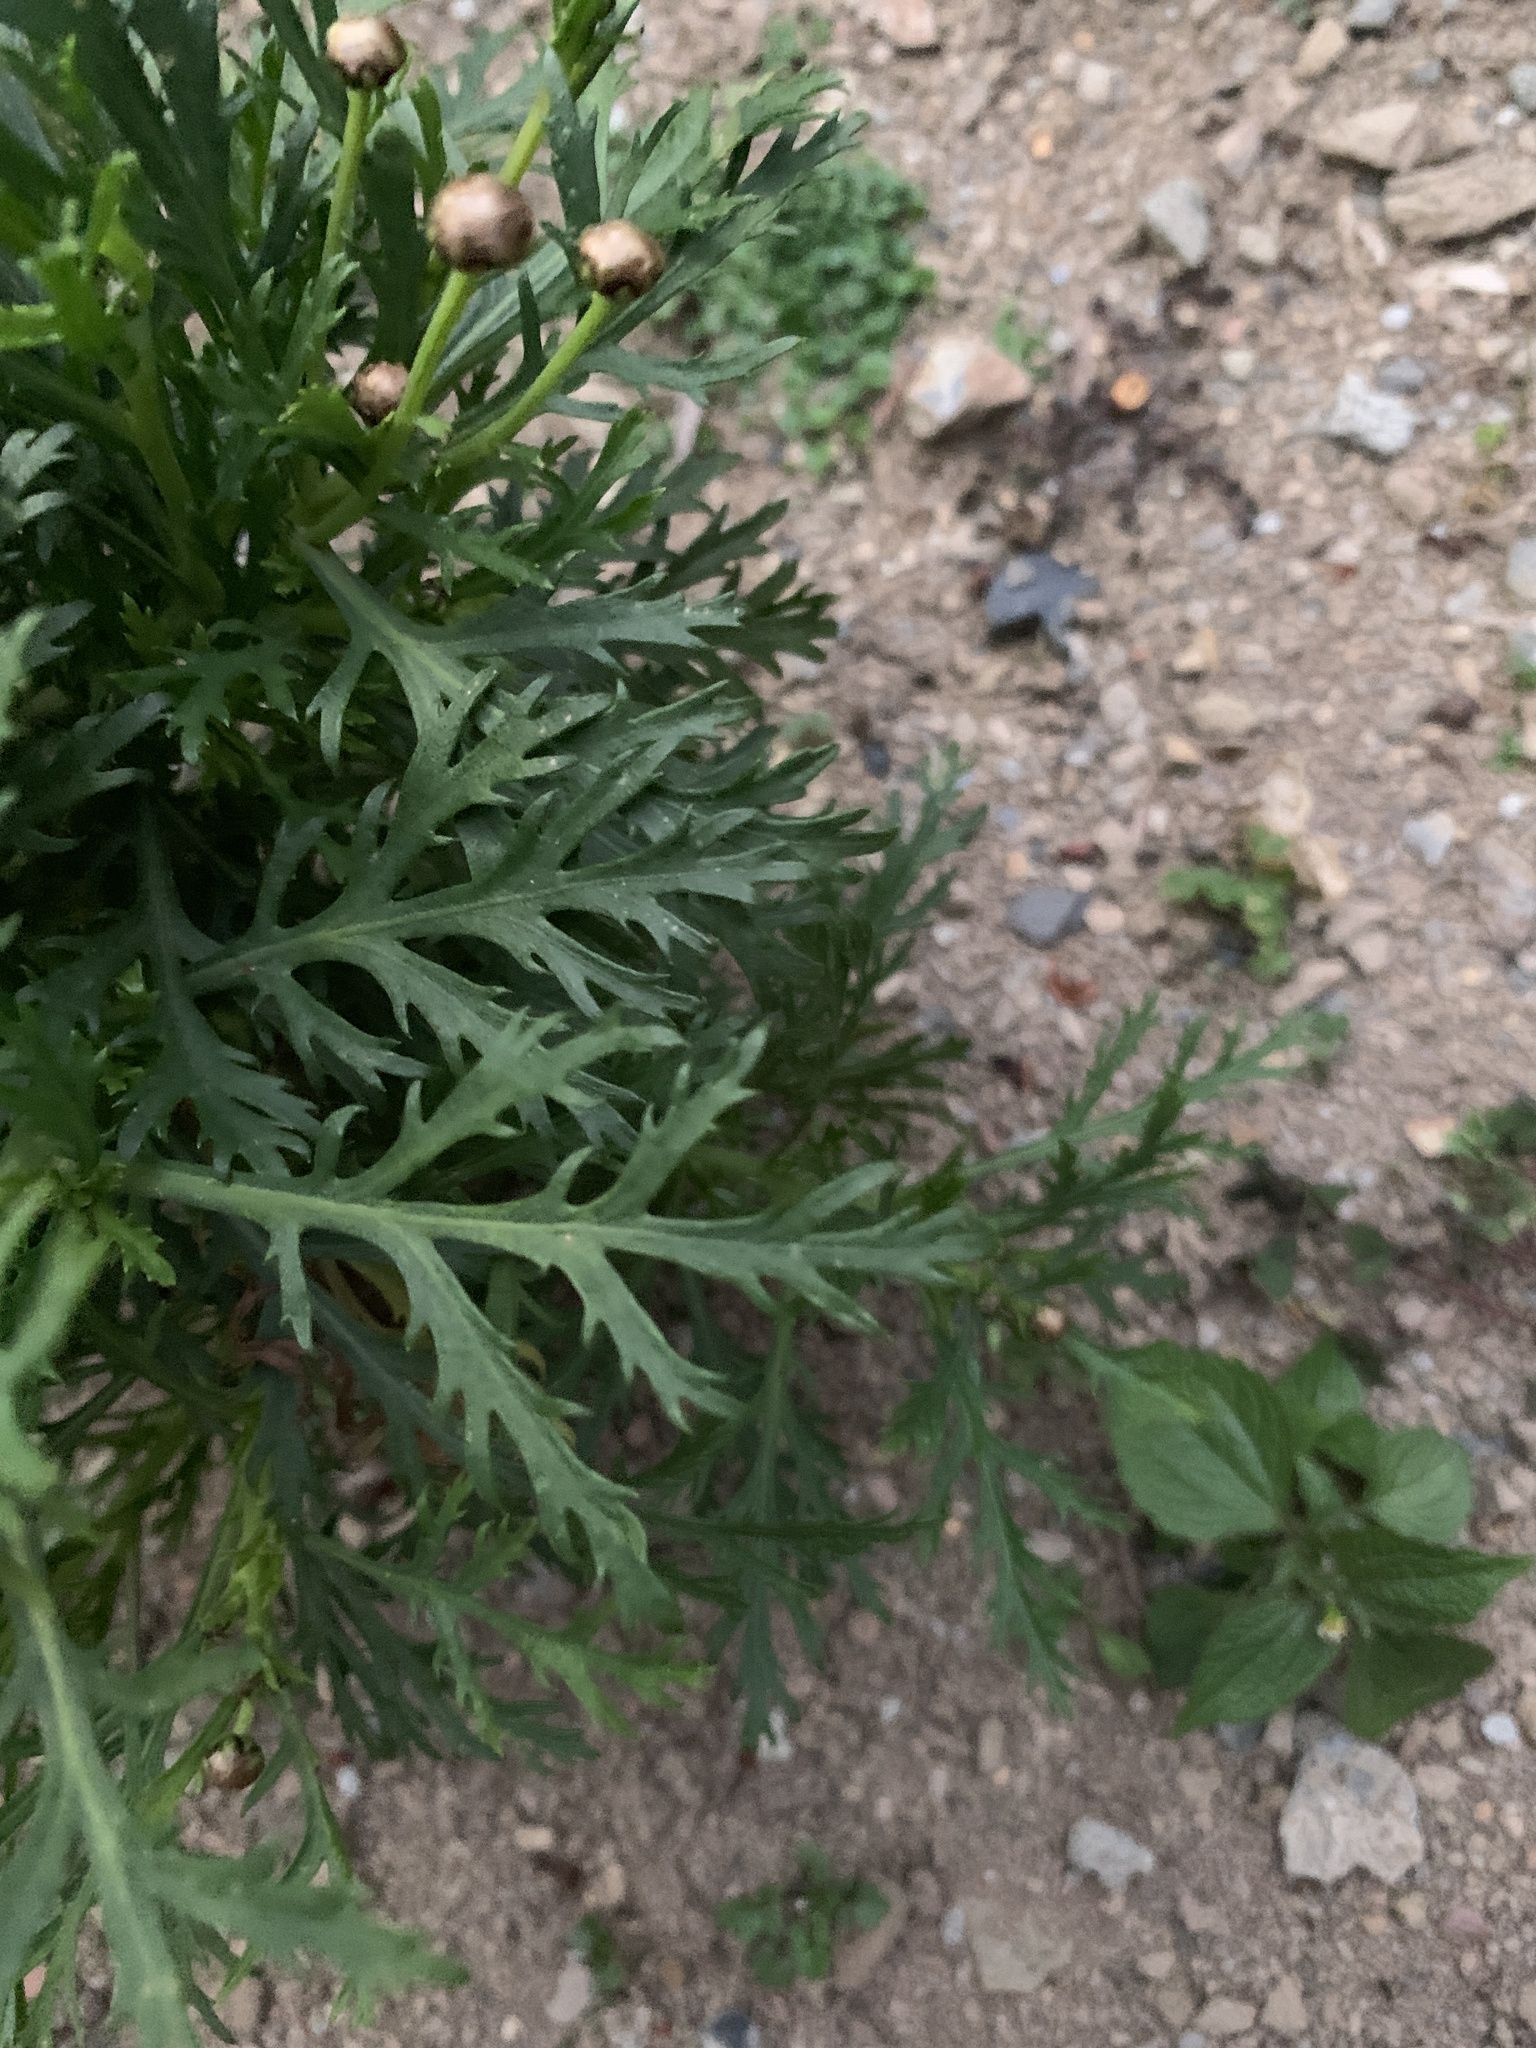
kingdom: Plantae
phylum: Tracheophyta
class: Magnoliopsida
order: Asterales
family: Asteraceae
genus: Leucanthemum
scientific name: Leucanthemum vulgare
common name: Oxeye daisy
